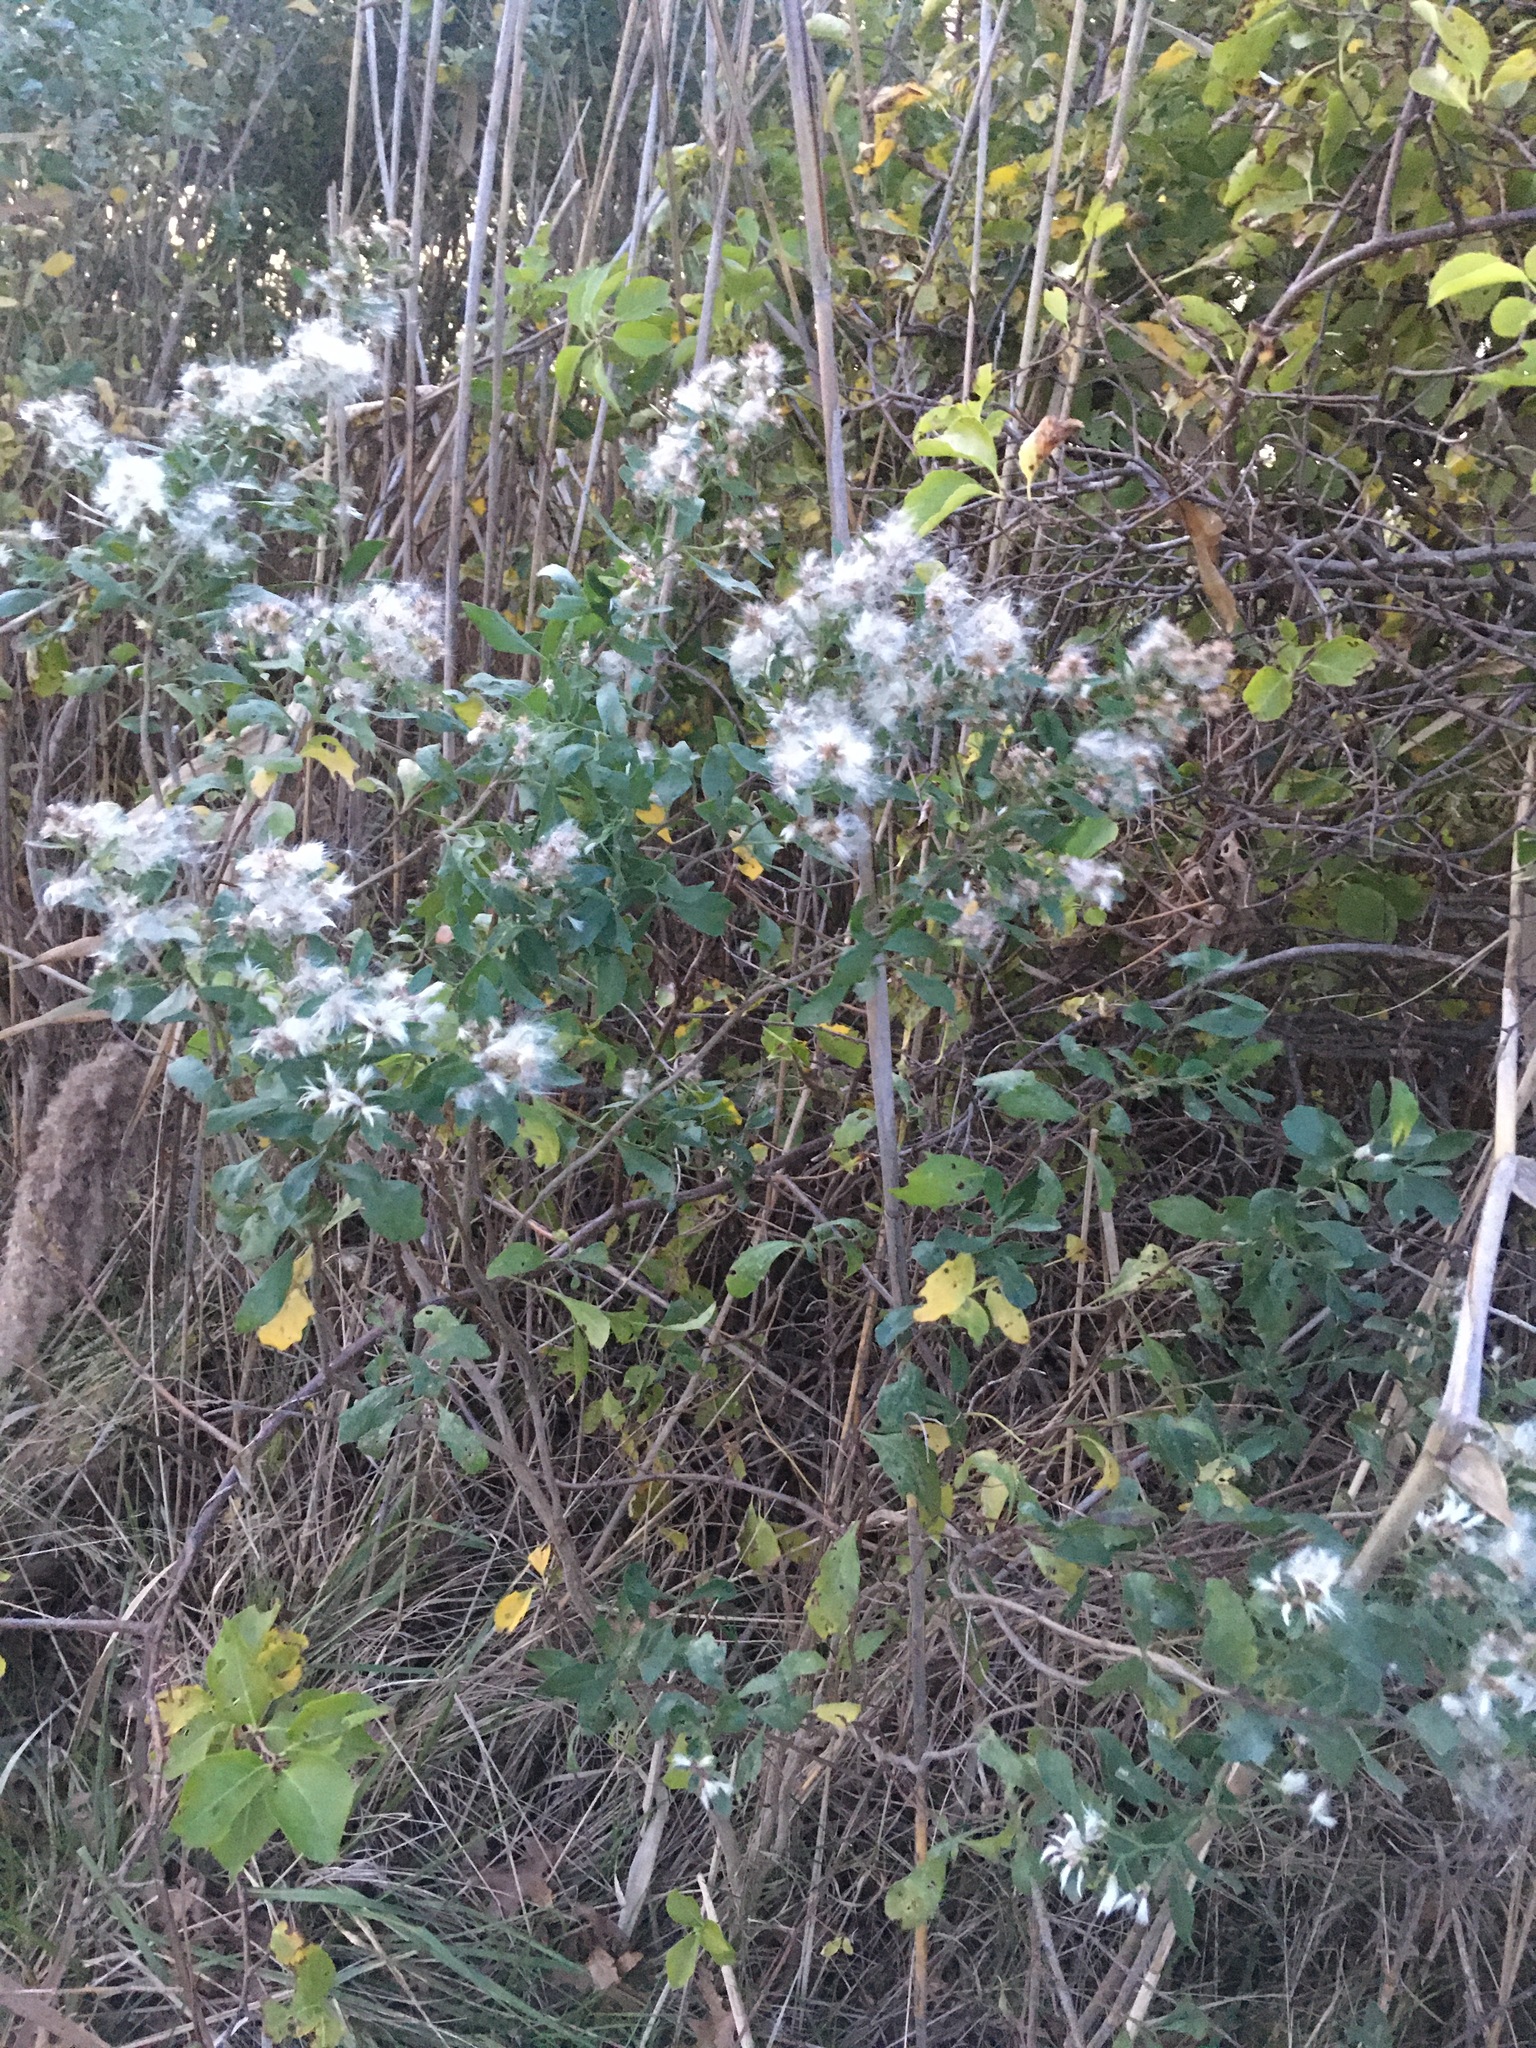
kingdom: Plantae
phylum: Tracheophyta
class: Magnoliopsida
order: Asterales
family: Asteraceae
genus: Baccharis
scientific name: Baccharis halimifolia
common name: Eastern baccharis
